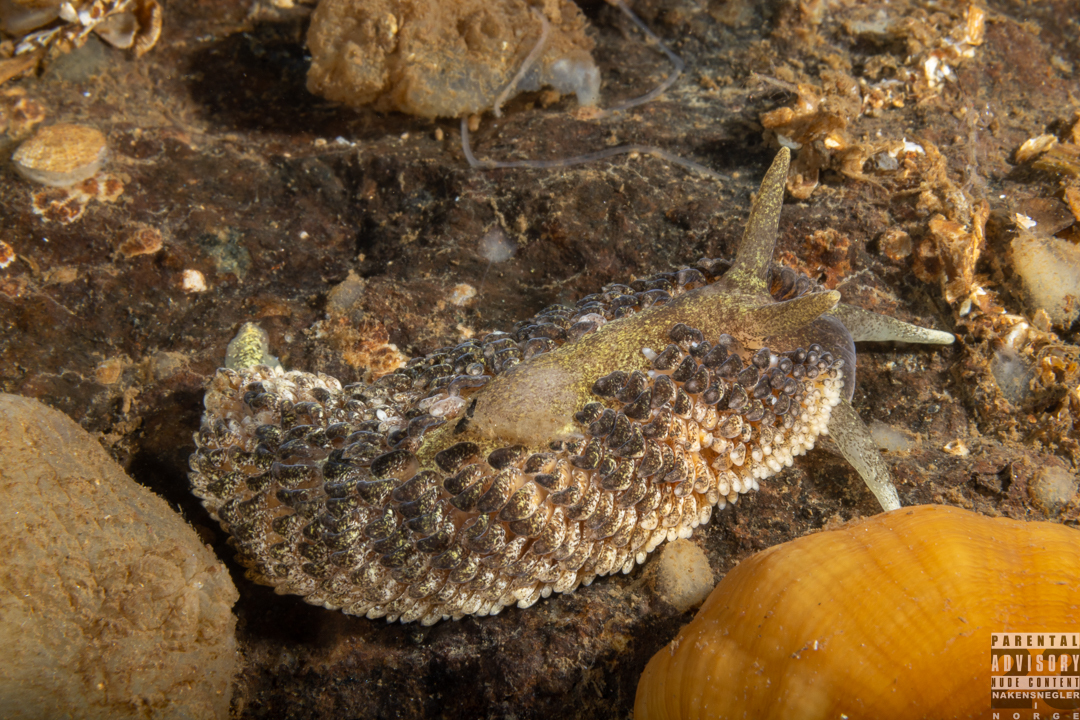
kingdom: Animalia
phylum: Mollusca
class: Gastropoda
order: Nudibranchia
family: Aeolidiidae
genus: Aeolidia
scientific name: Aeolidia papillosa
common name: Common grey sea slug
